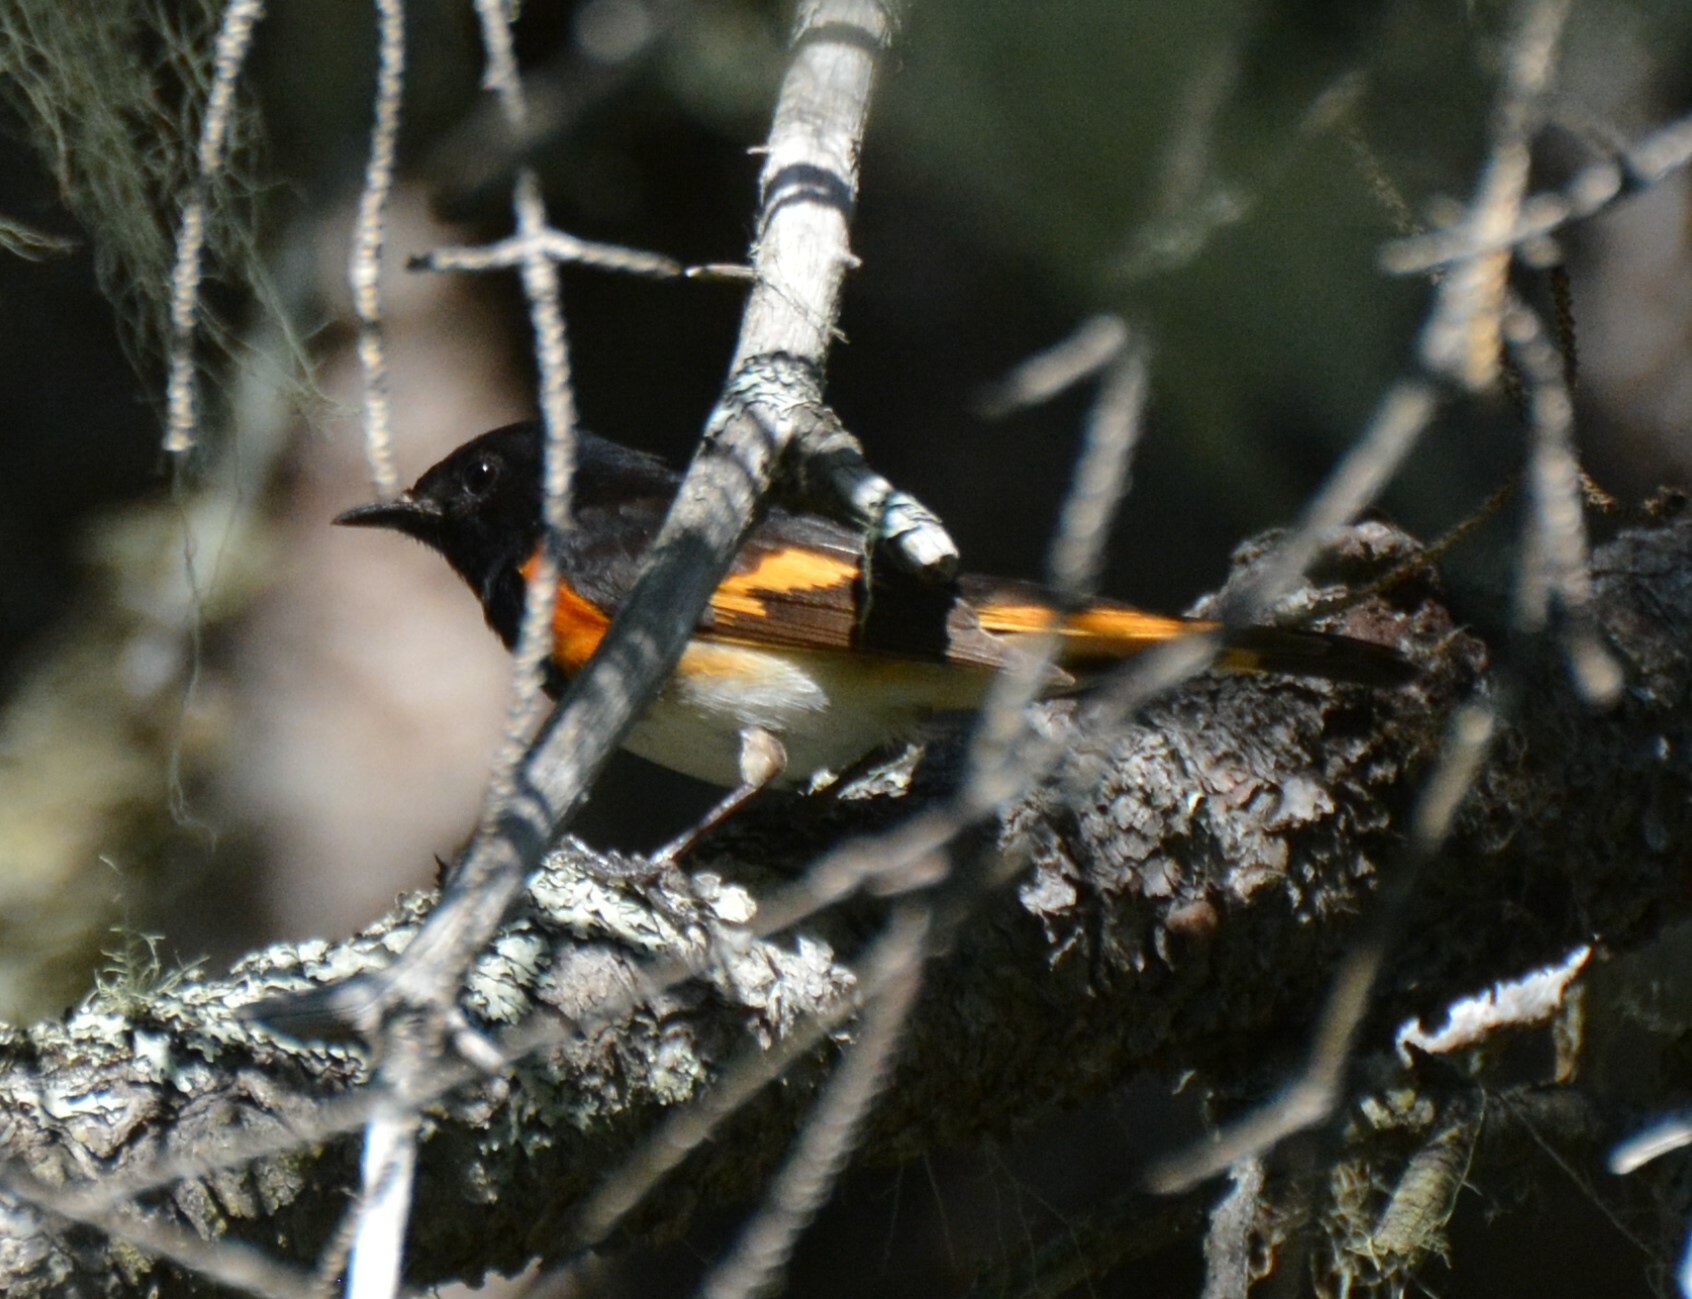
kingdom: Animalia
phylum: Chordata
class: Aves
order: Passeriformes
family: Parulidae
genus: Setophaga
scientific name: Setophaga ruticilla
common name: American redstart
